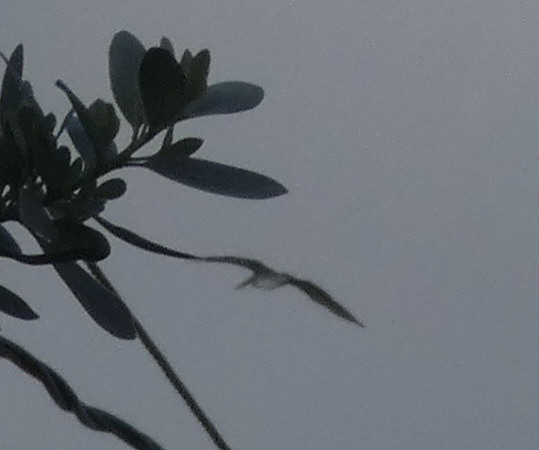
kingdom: Animalia
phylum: Chordata
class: Aves
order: Pelecaniformes
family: Pelecanidae
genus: Pelecanus
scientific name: Pelecanus occidentalis
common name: Brown pelican
